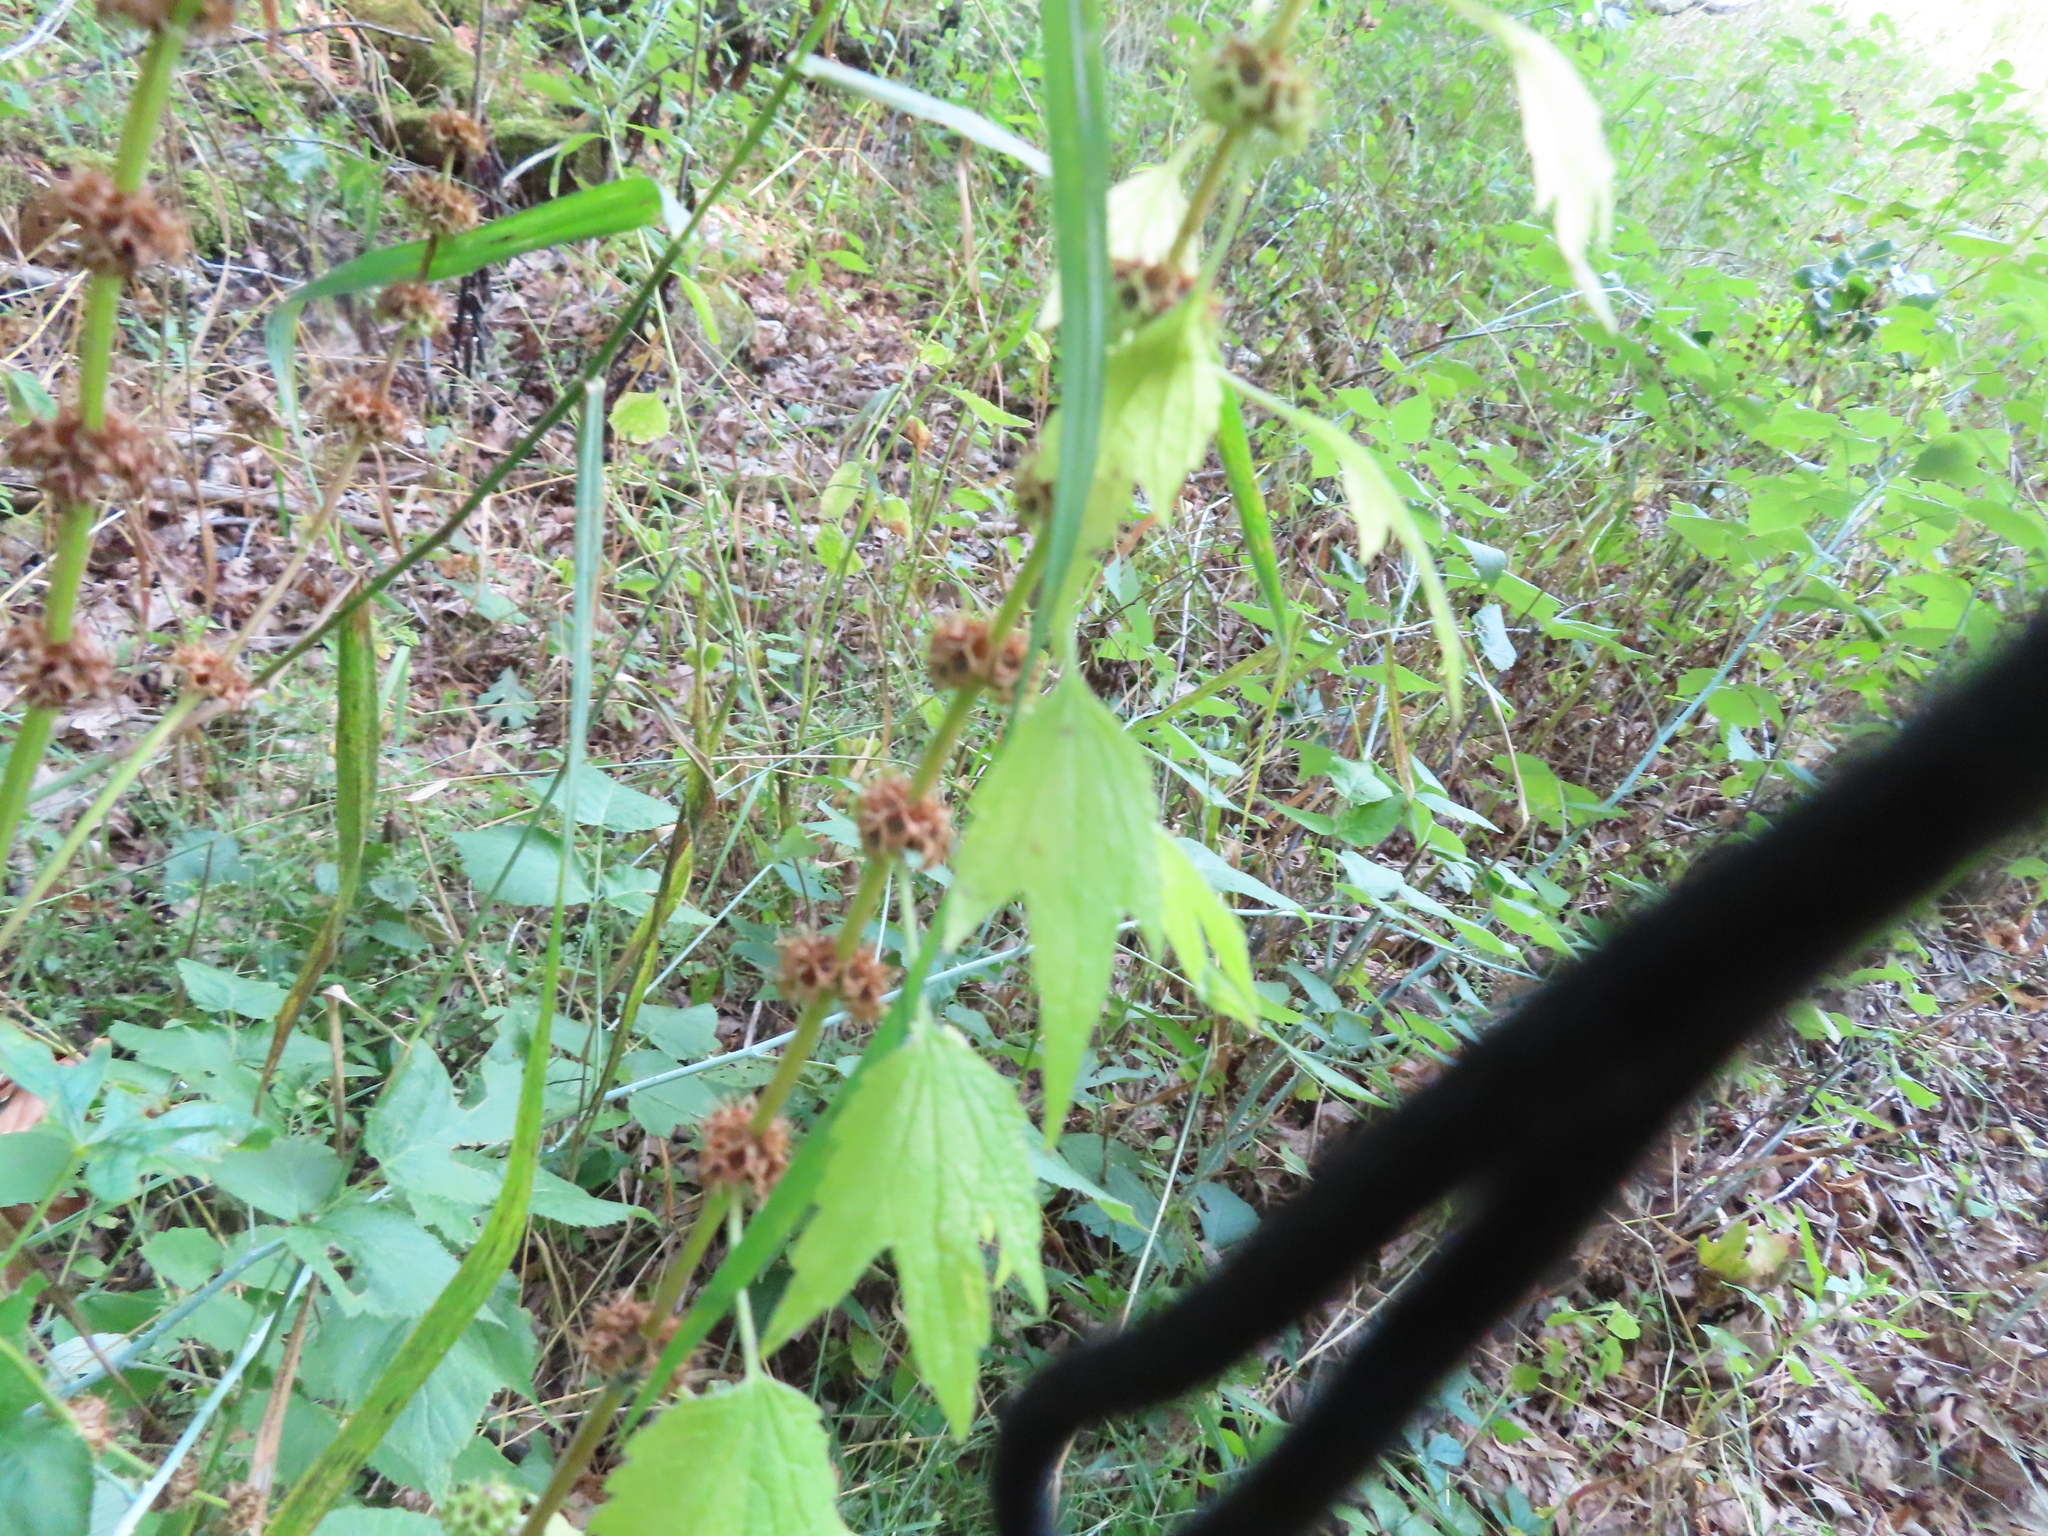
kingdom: Plantae
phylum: Tracheophyta
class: Magnoliopsida
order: Lamiales
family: Lamiaceae
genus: Leonurus
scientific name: Leonurus cardiaca
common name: Motherwort
